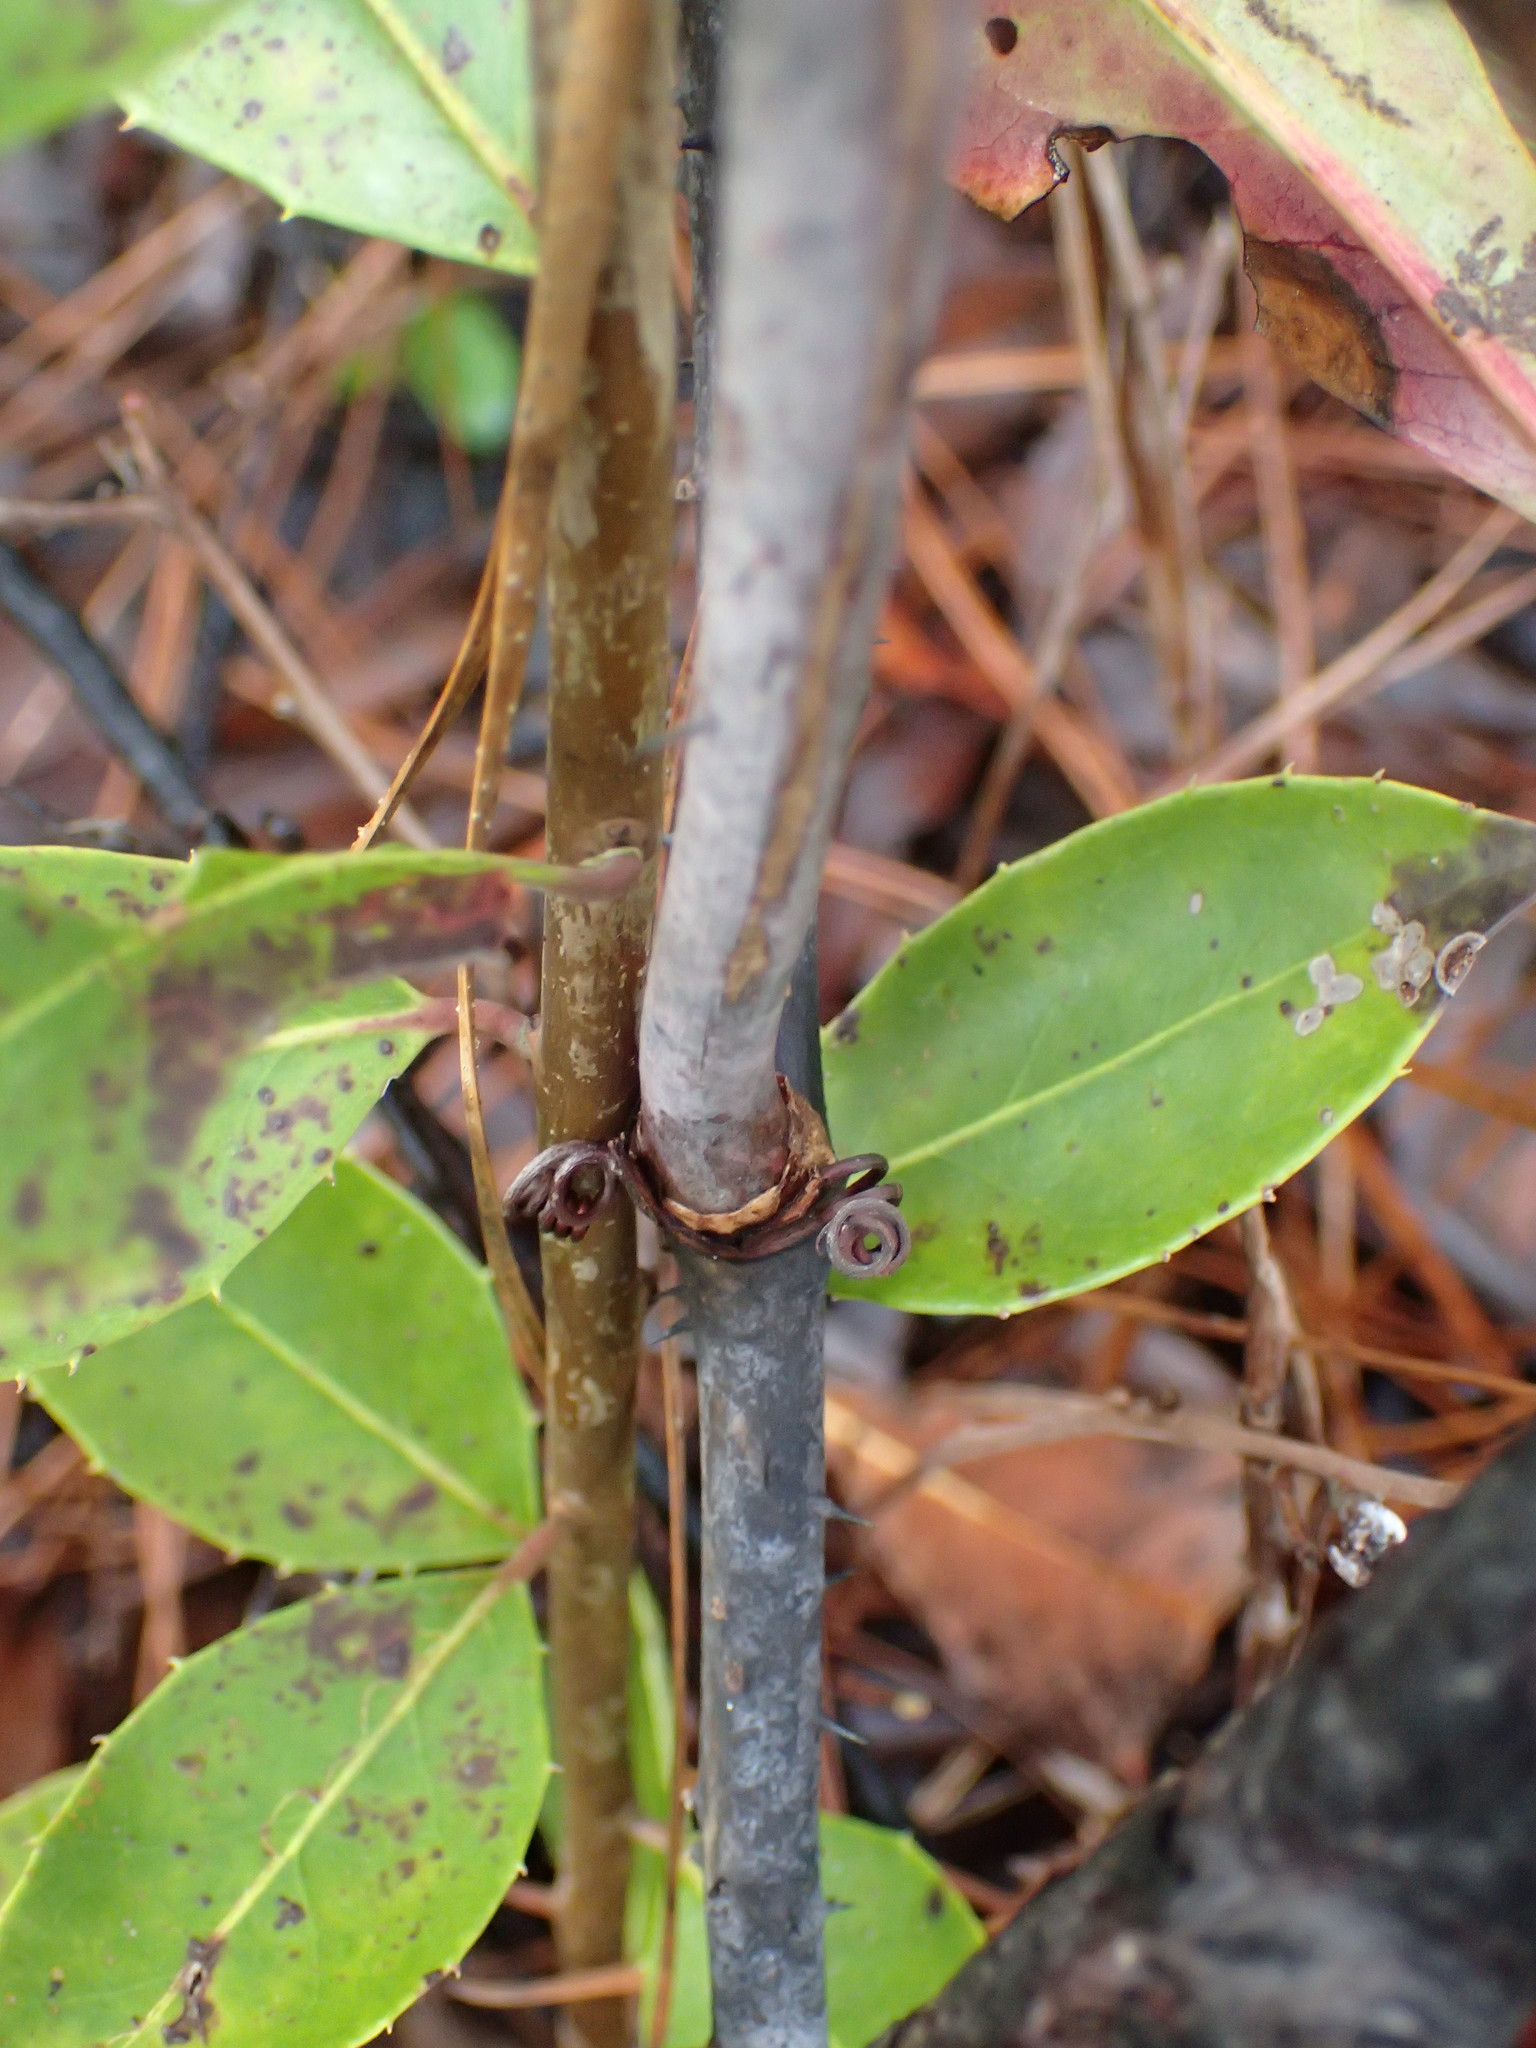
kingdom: Plantae
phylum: Tracheophyta
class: Liliopsida
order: Liliales
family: Smilacaceae
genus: Smilax
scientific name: Smilax laurifolia
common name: Bamboovine
